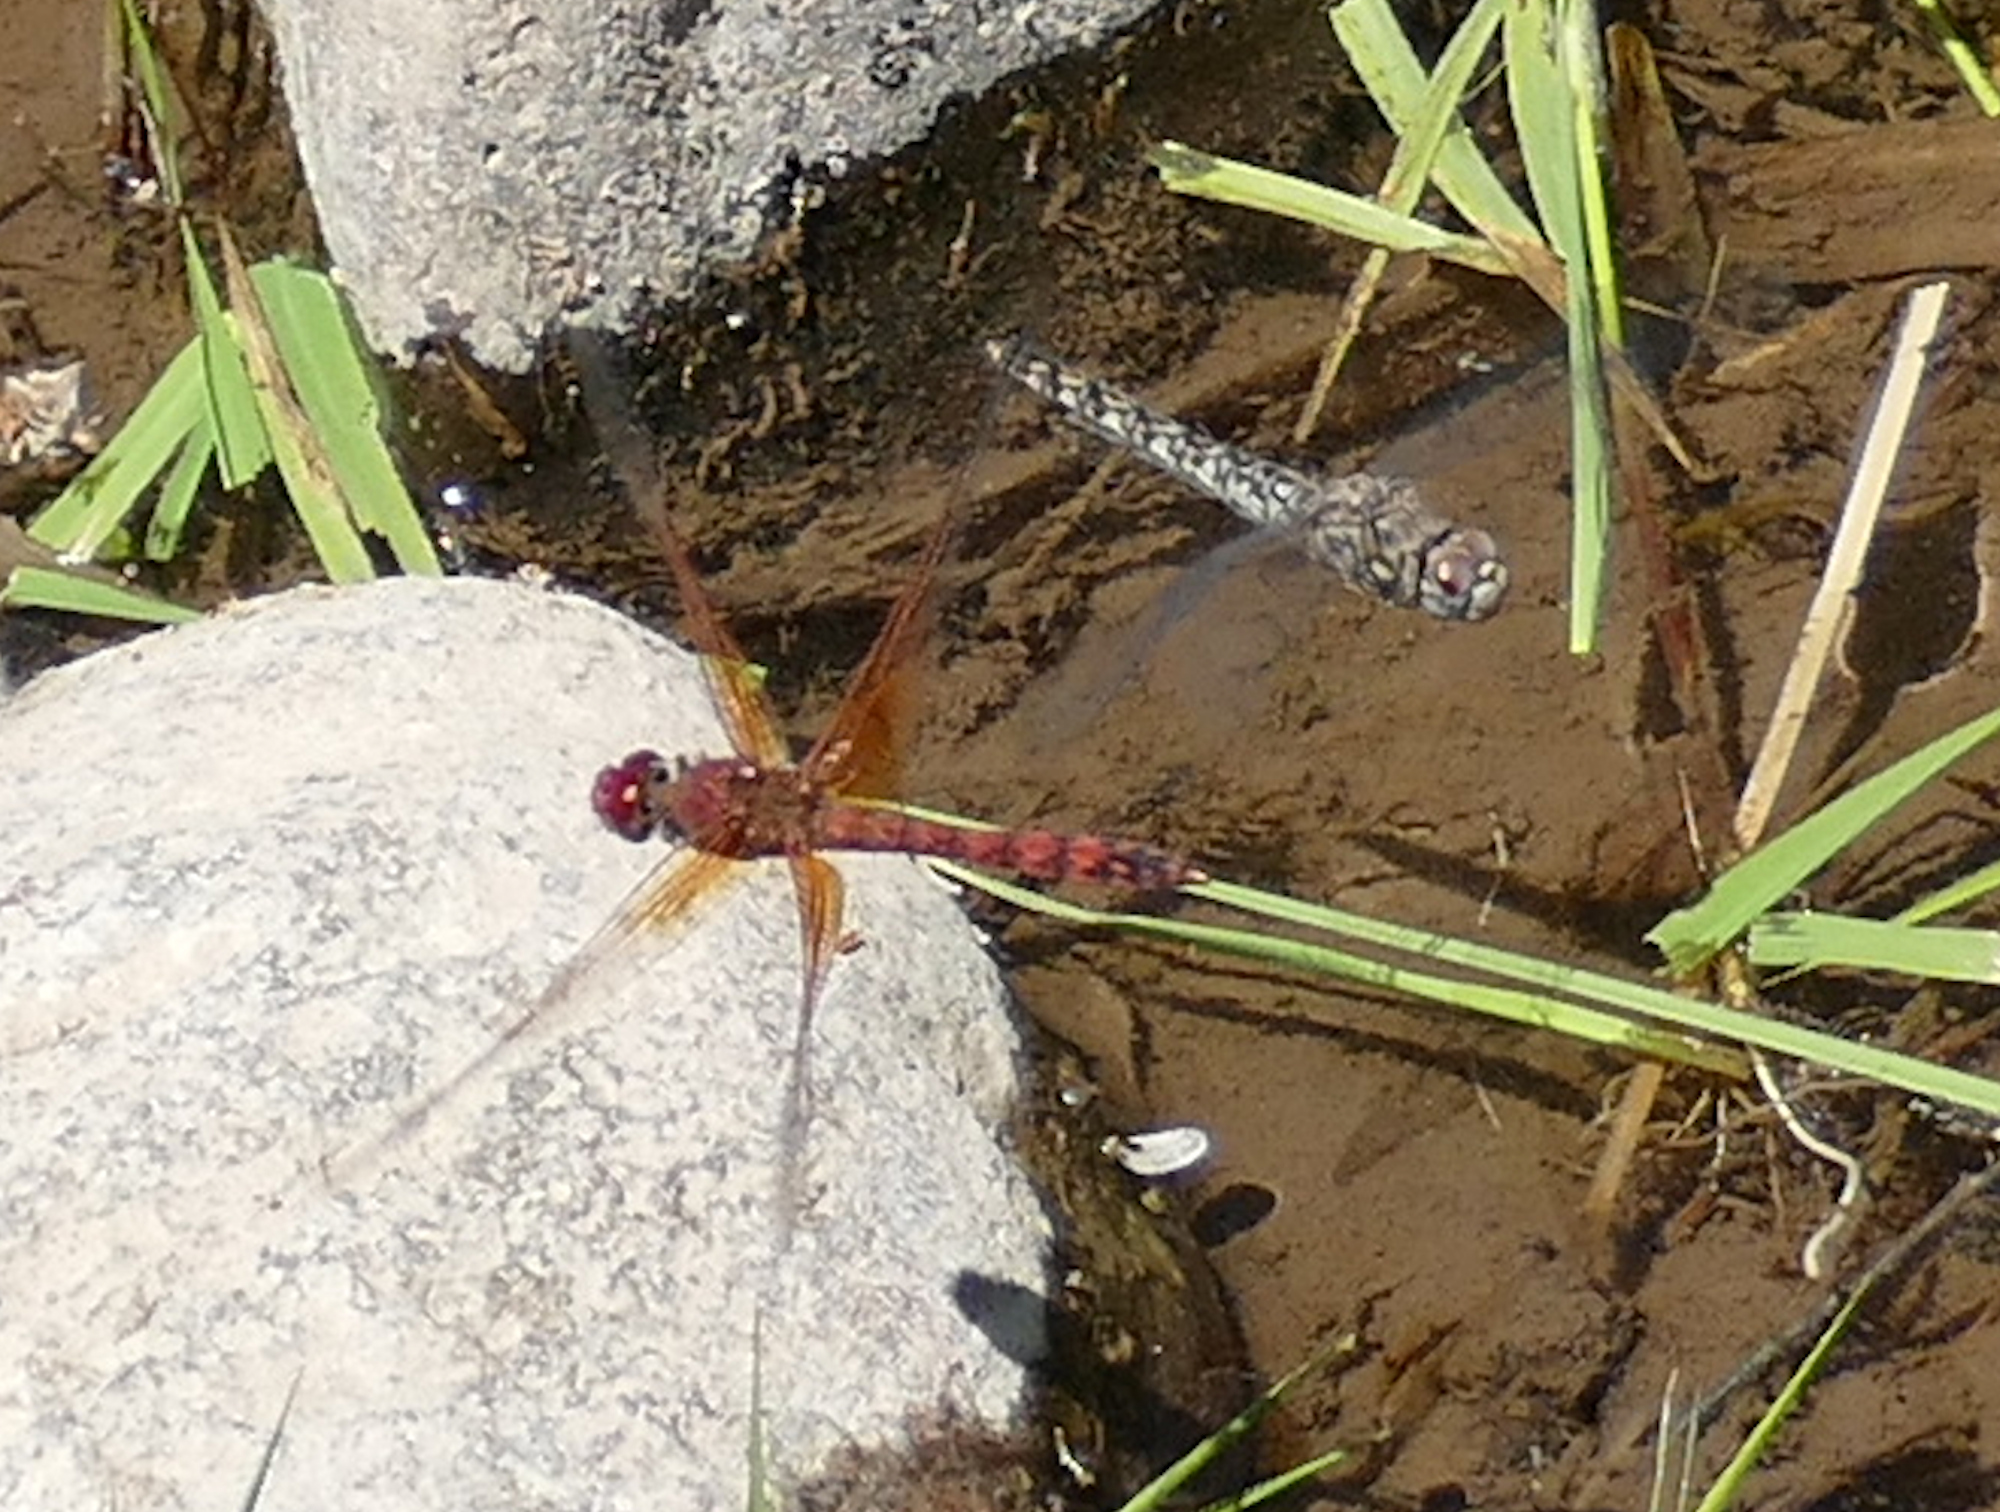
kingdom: Animalia
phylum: Arthropoda
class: Insecta
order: Odonata
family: Libellulidae
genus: Paltothemis
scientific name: Paltothemis lineatipes
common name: Red rock skimmer
